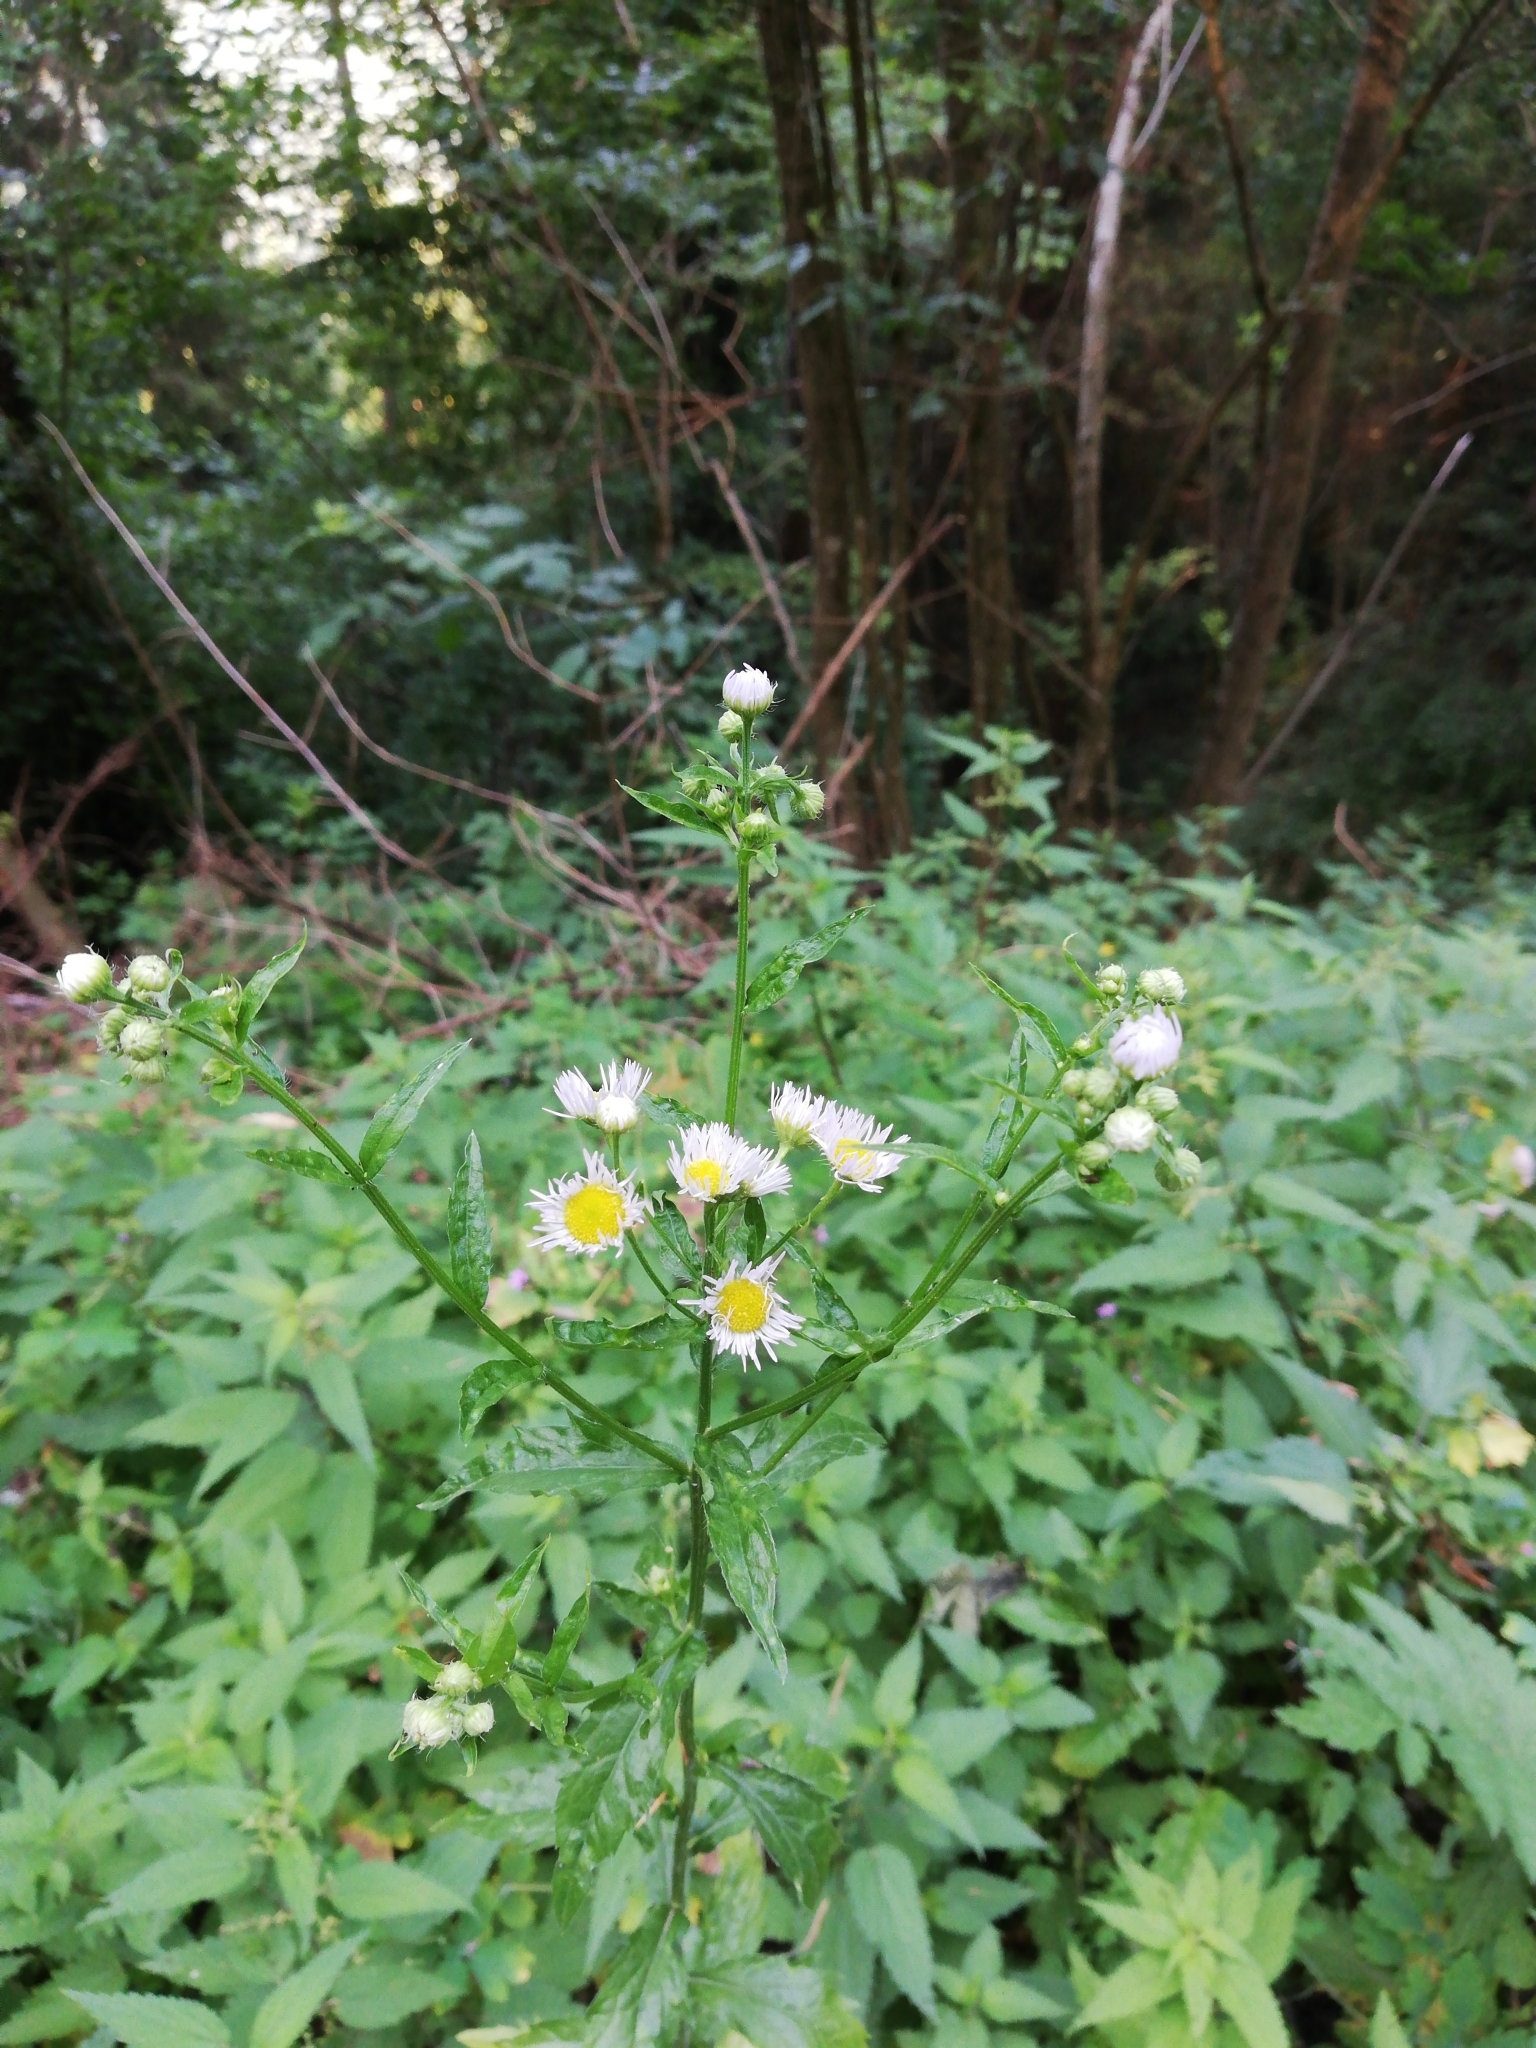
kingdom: Plantae
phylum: Tracheophyta
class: Magnoliopsida
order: Asterales
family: Asteraceae
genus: Erigeron
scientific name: Erigeron annuus
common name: Tall fleabane
